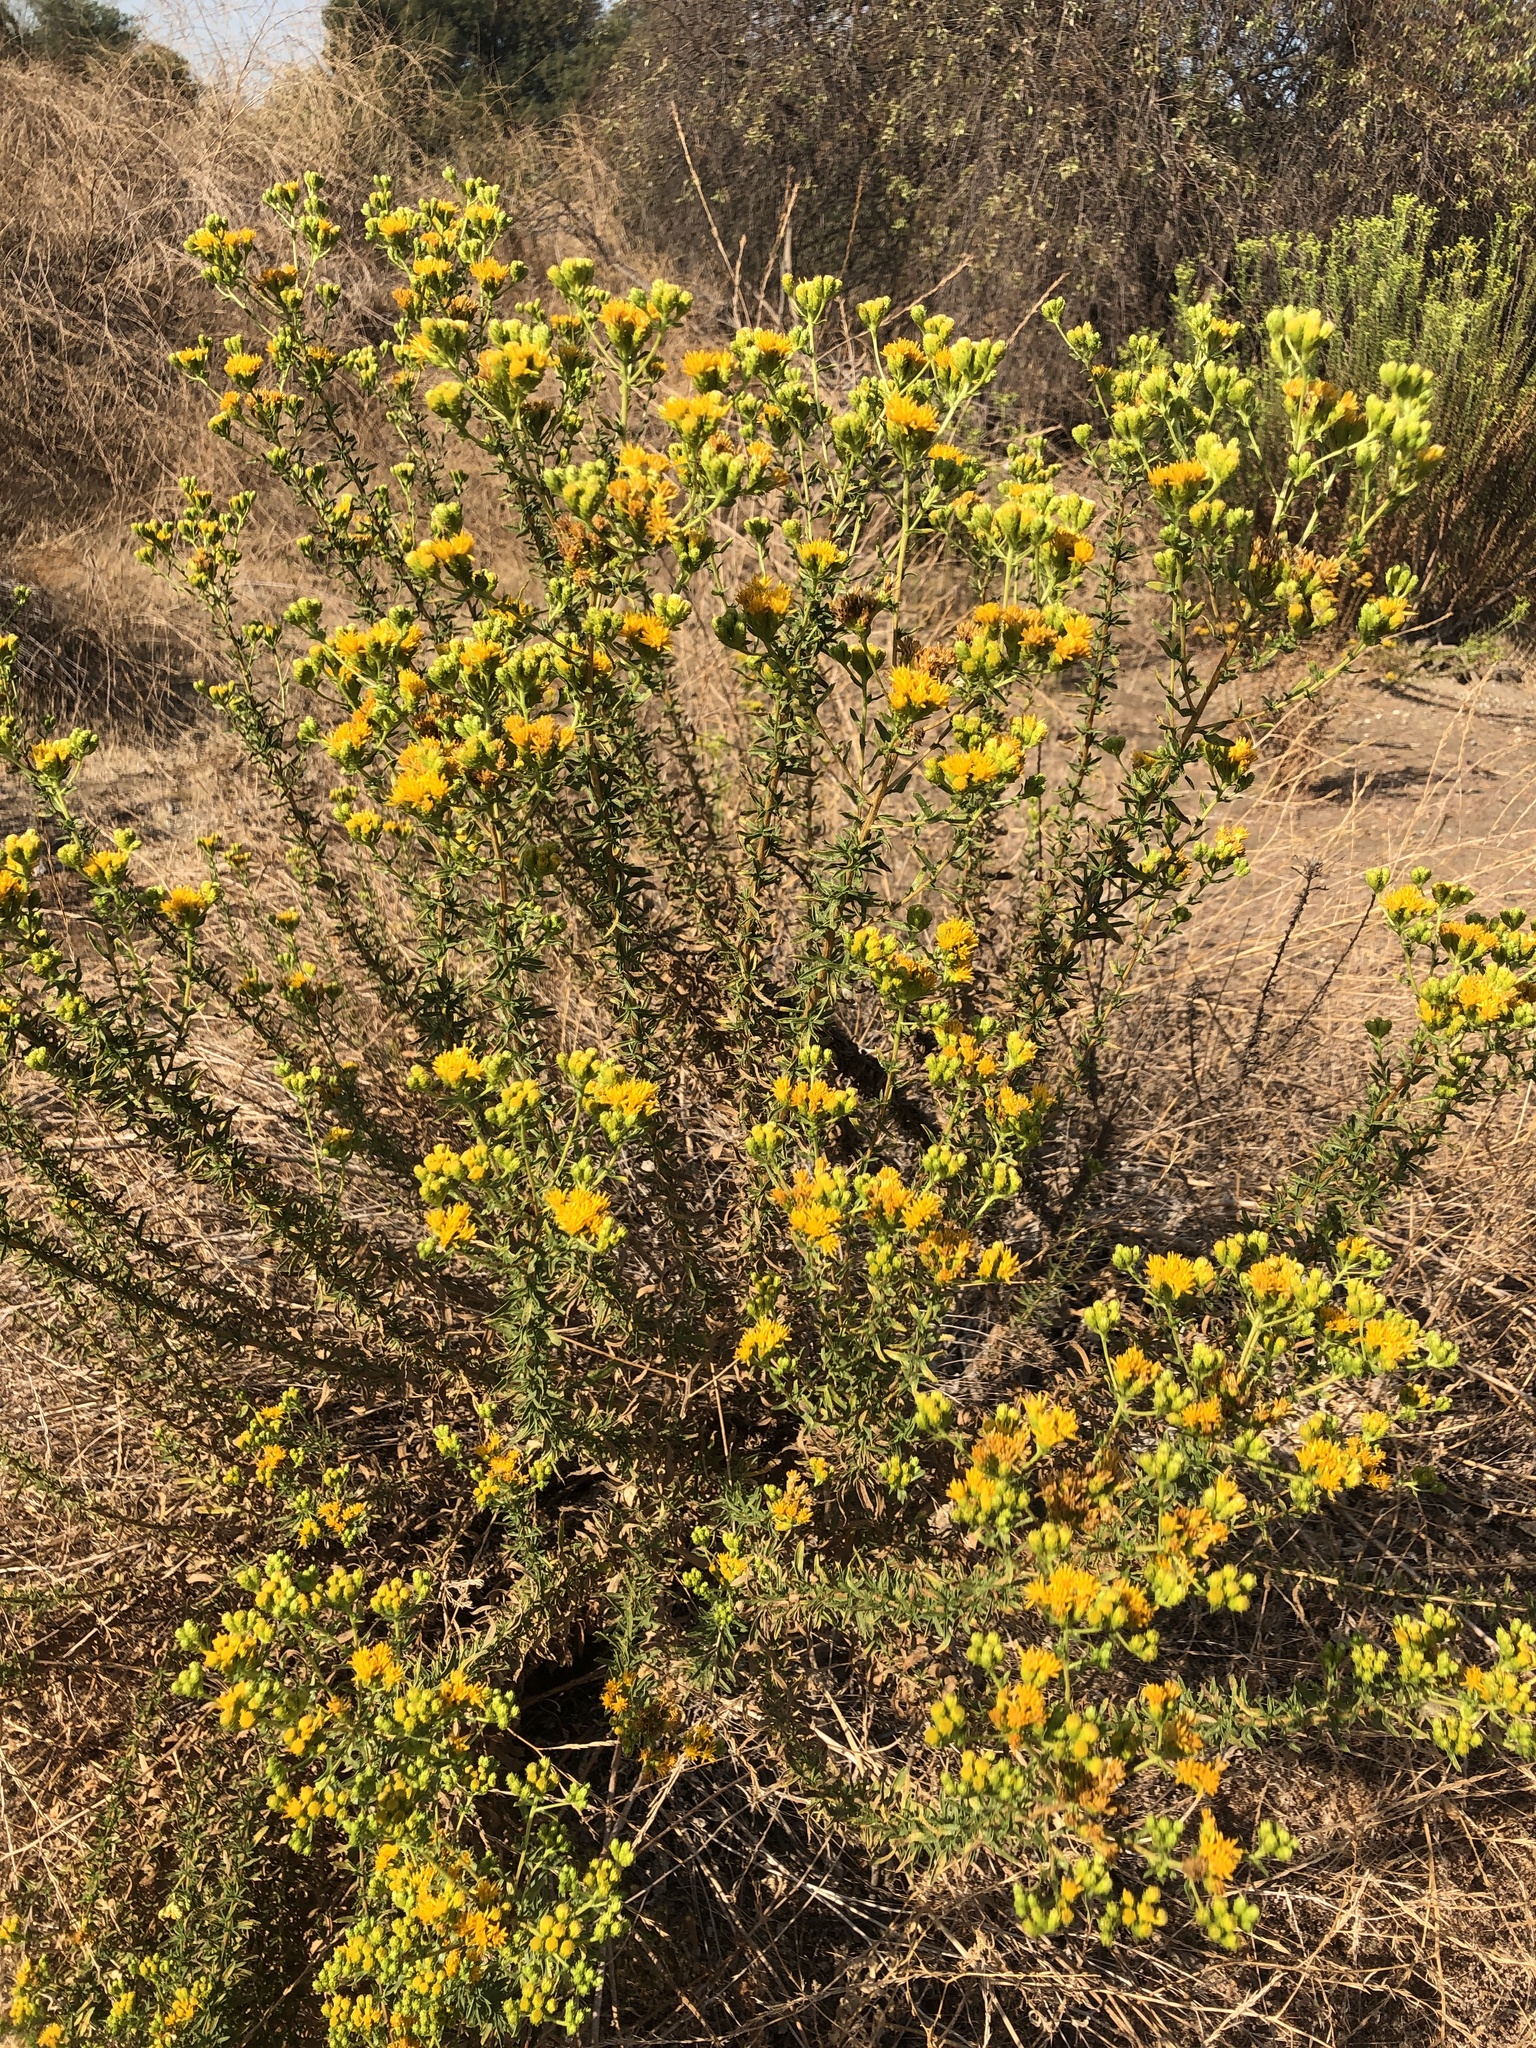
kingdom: Plantae
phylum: Tracheophyta
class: Magnoliopsida
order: Asterales
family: Asteraceae
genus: Isocoma
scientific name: Isocoma menziesii
